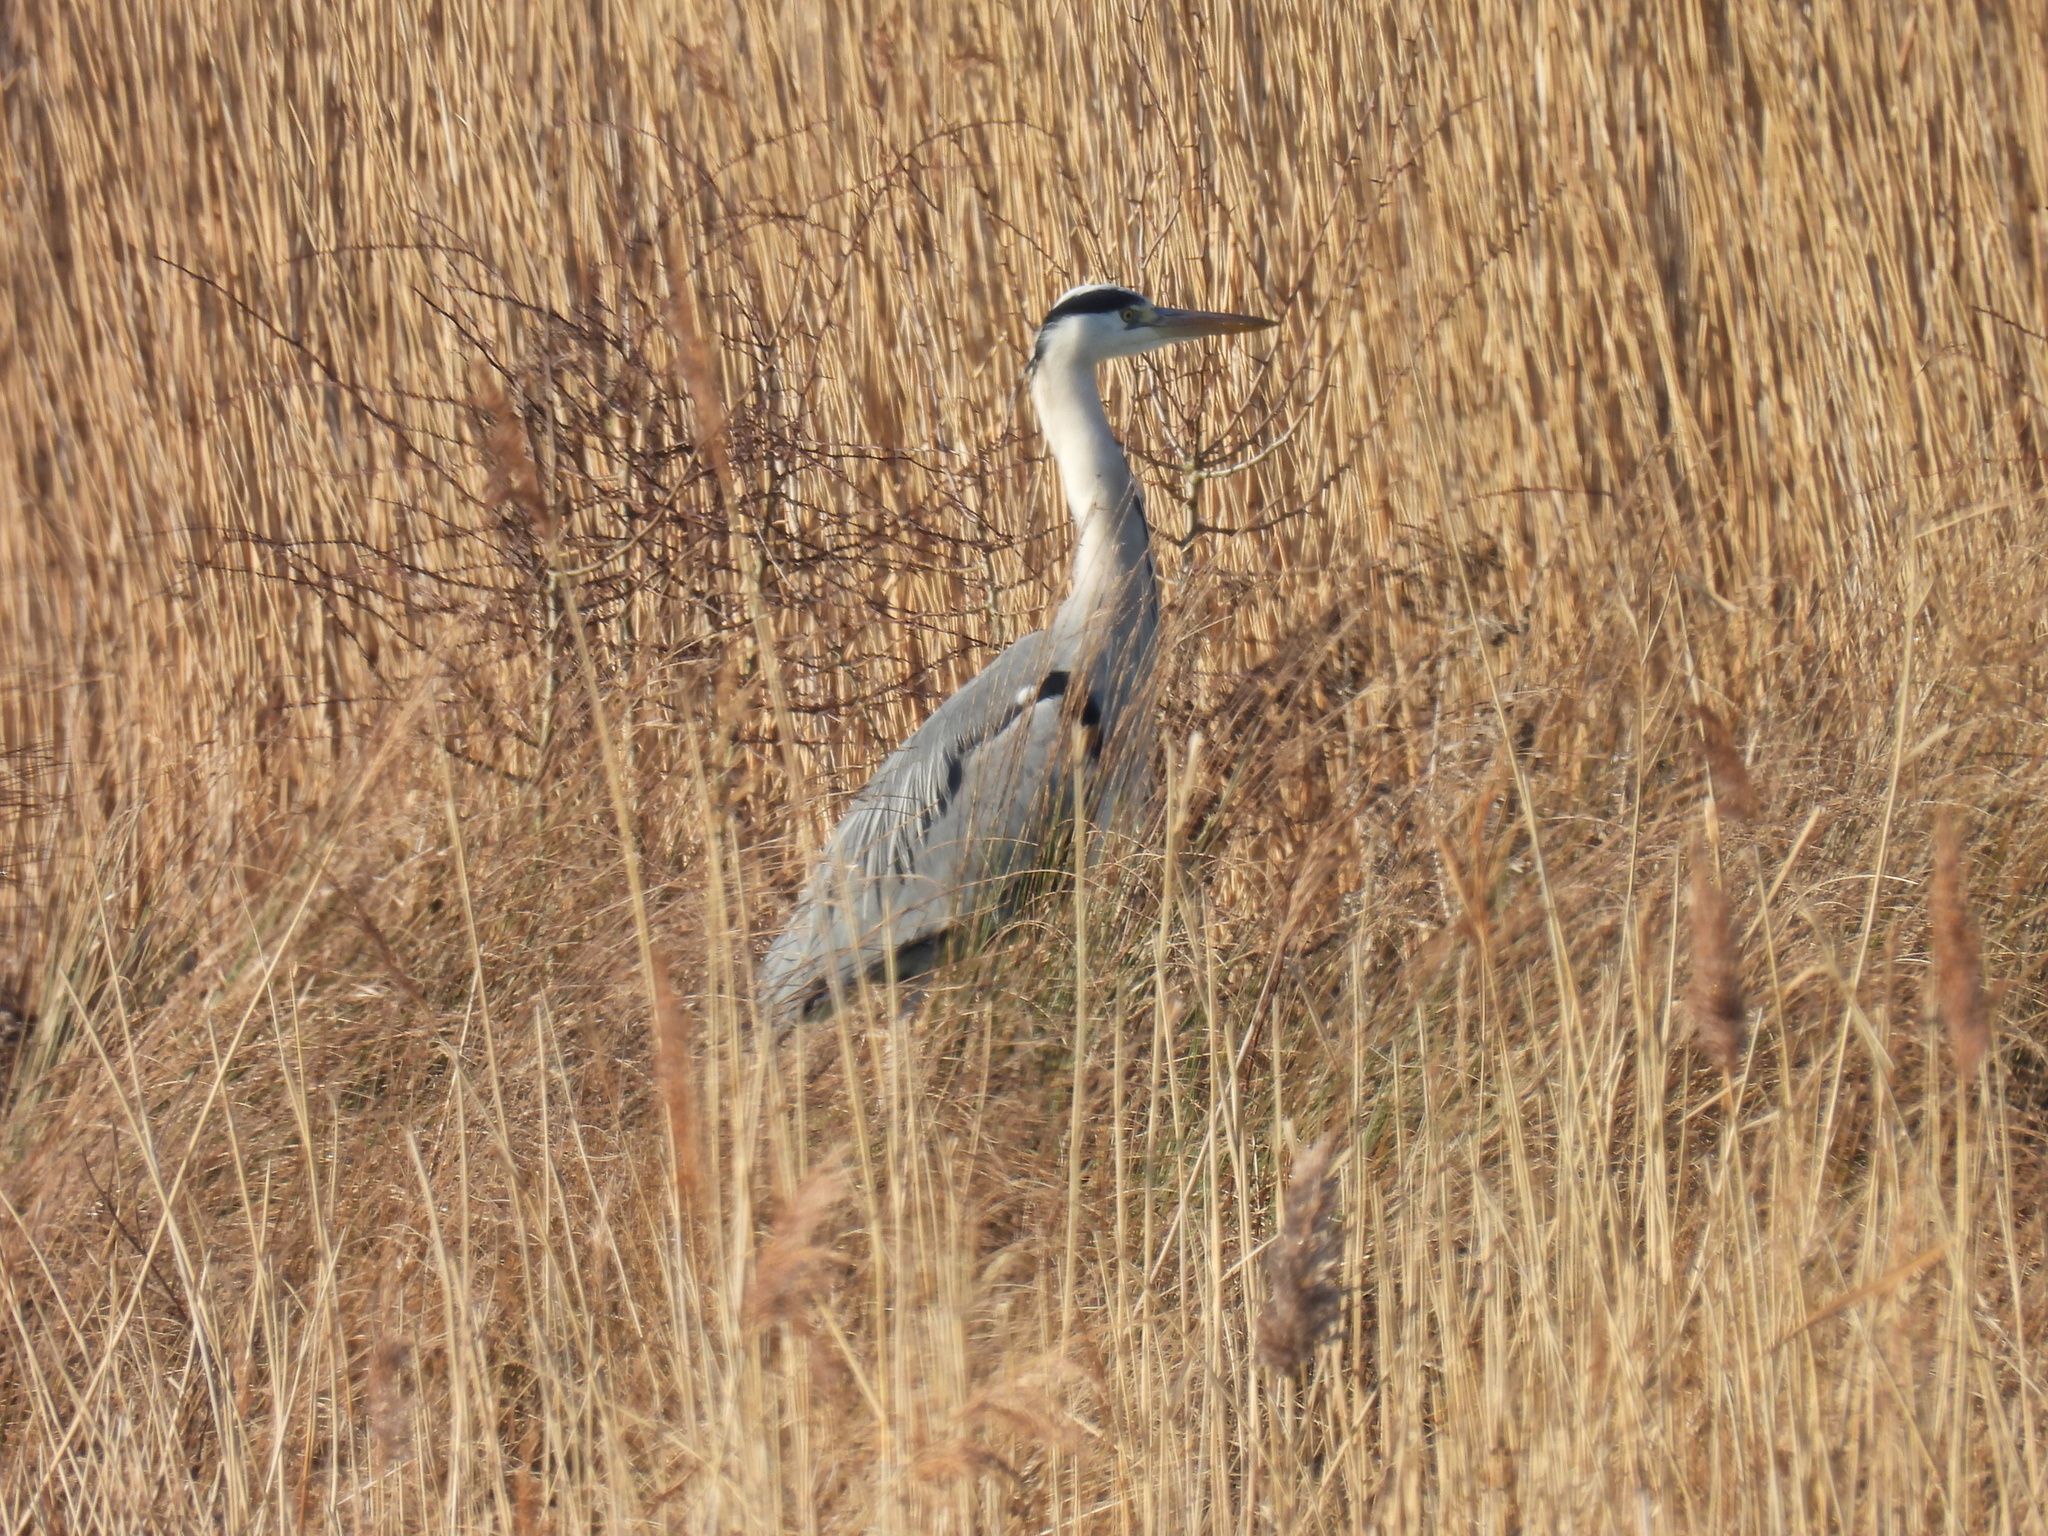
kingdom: Animalia
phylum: Chordata
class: Aves
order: Pelecaniformes
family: Ardeidae
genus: Ardea
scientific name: Ardea cinerea
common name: Grey heron
